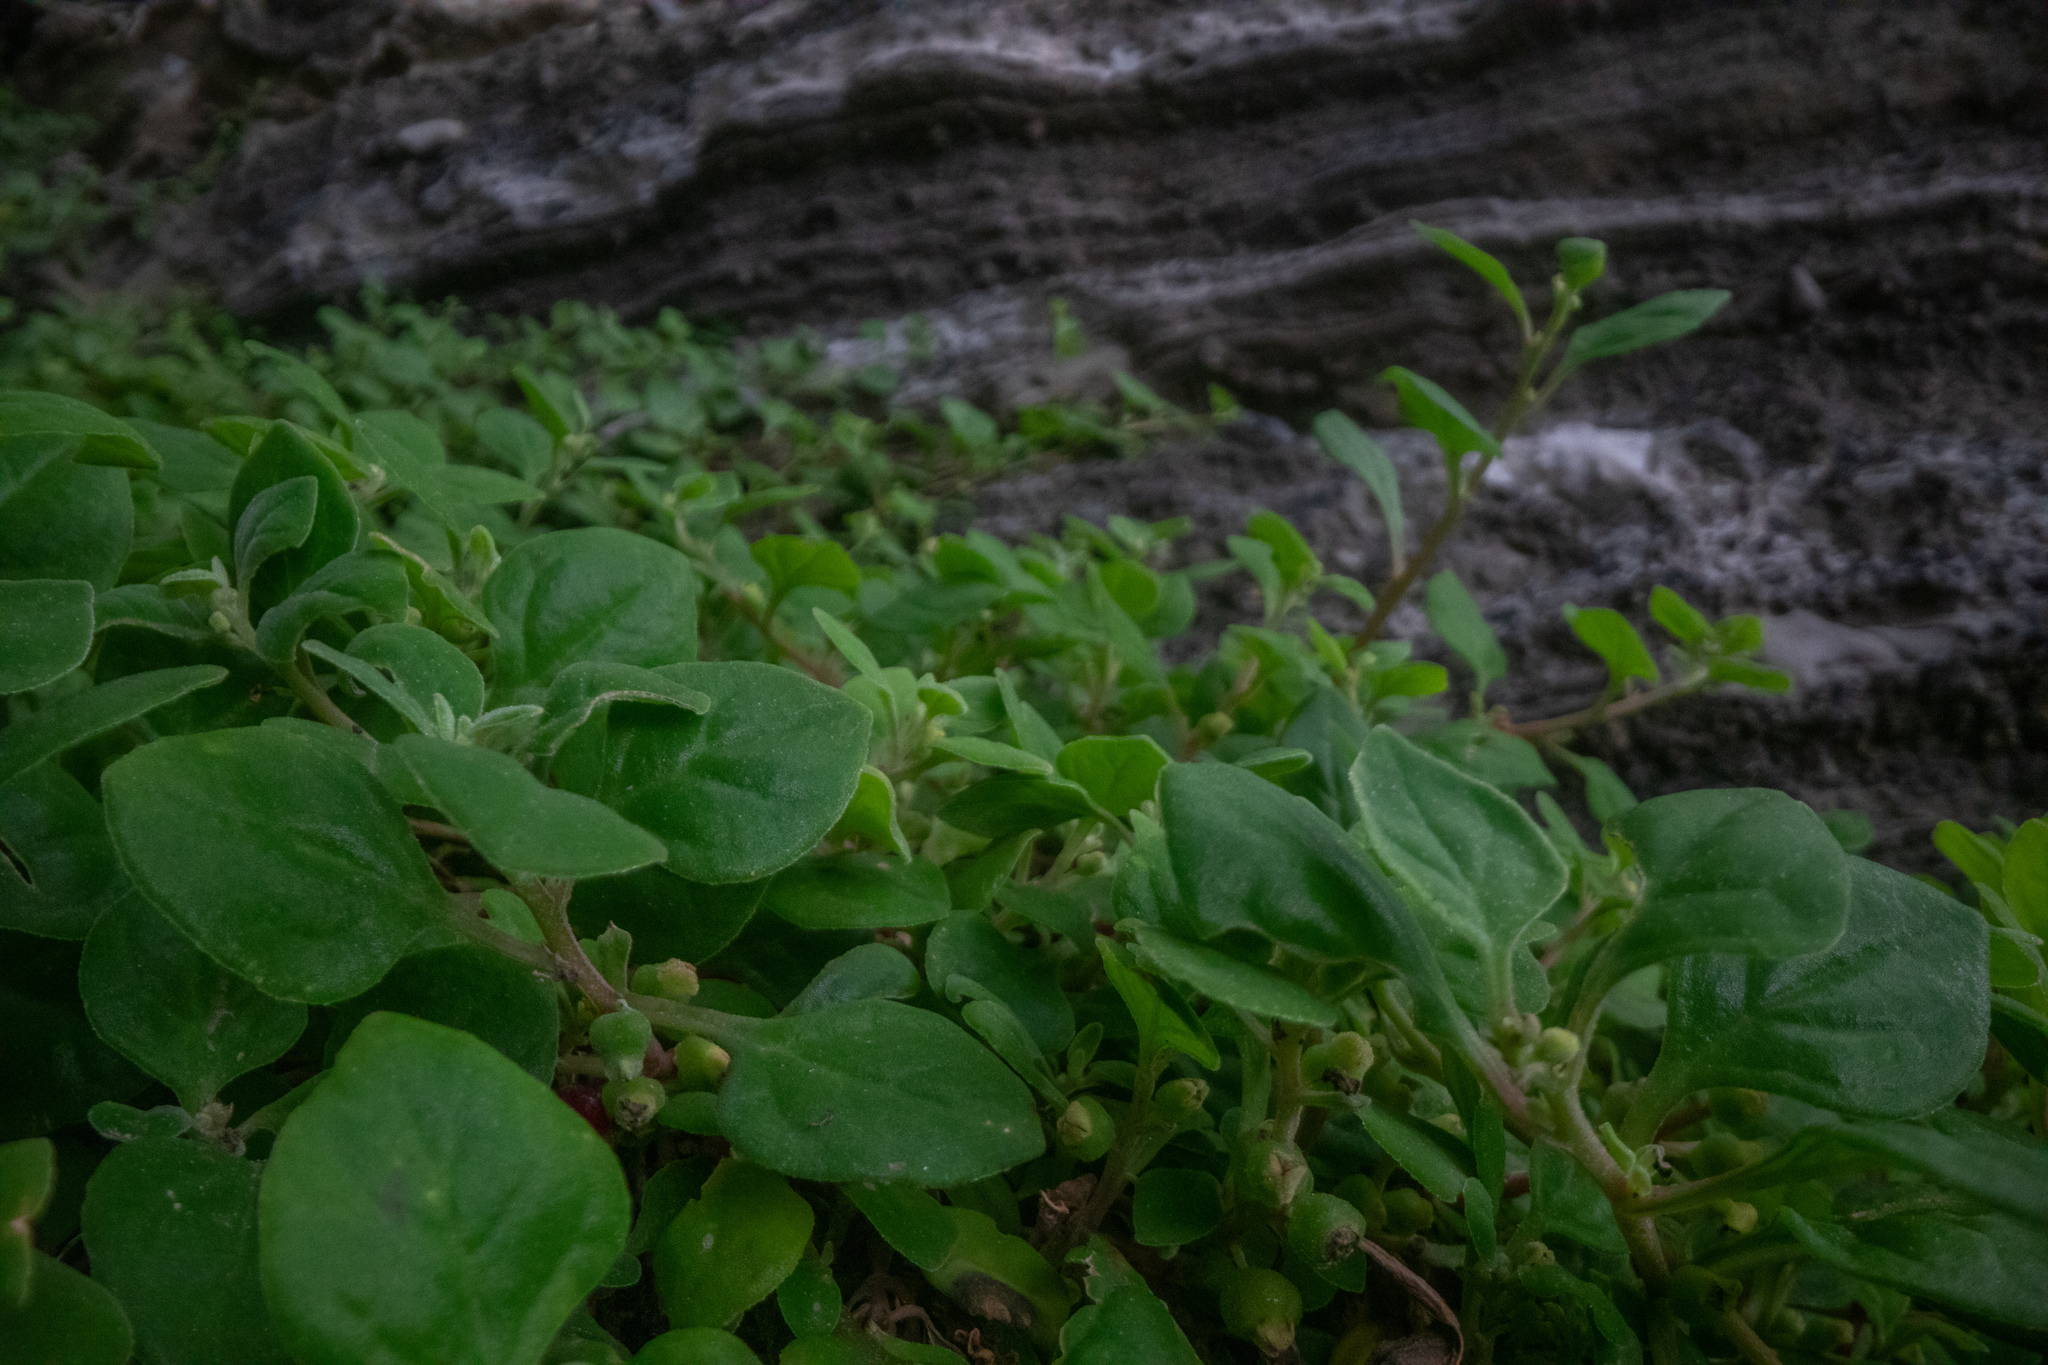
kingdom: Plantae
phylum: Tracheophyta
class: Magnoliopsida
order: Caryophyllales
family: Aizoaceae
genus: Tetragonia
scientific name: Tetragonia implexicoma
